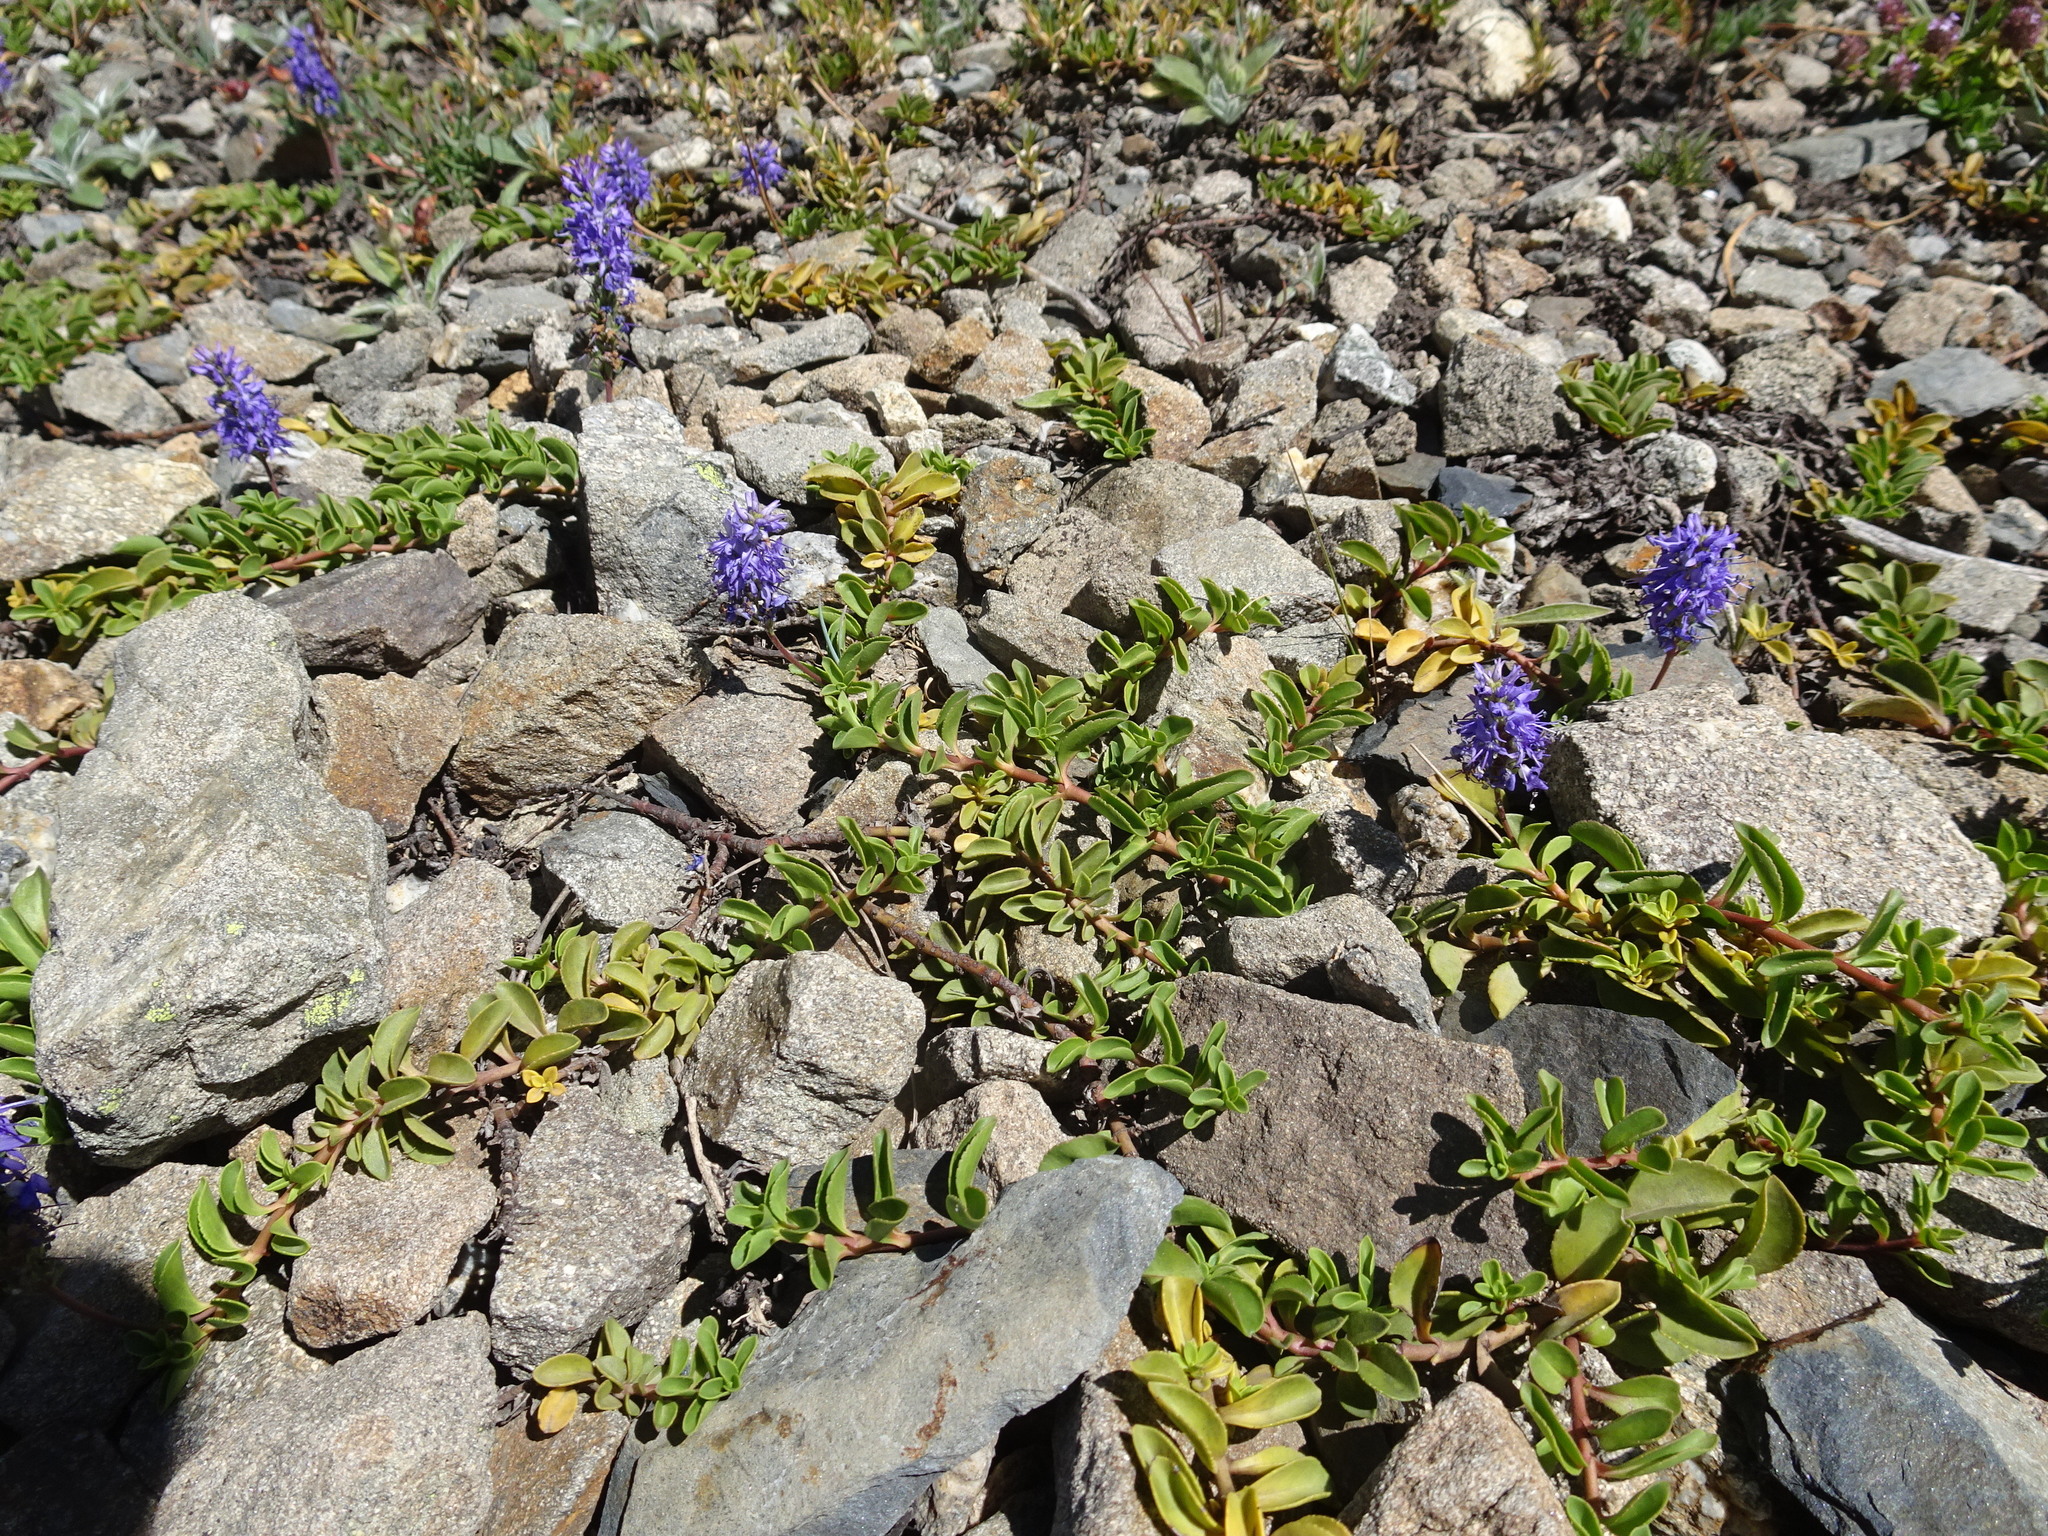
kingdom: Plantae
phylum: Tracheophyta
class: Magnoliopsida
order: Lamiales
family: Plantaginaceae
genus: Veronica
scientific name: Veronica allionii
